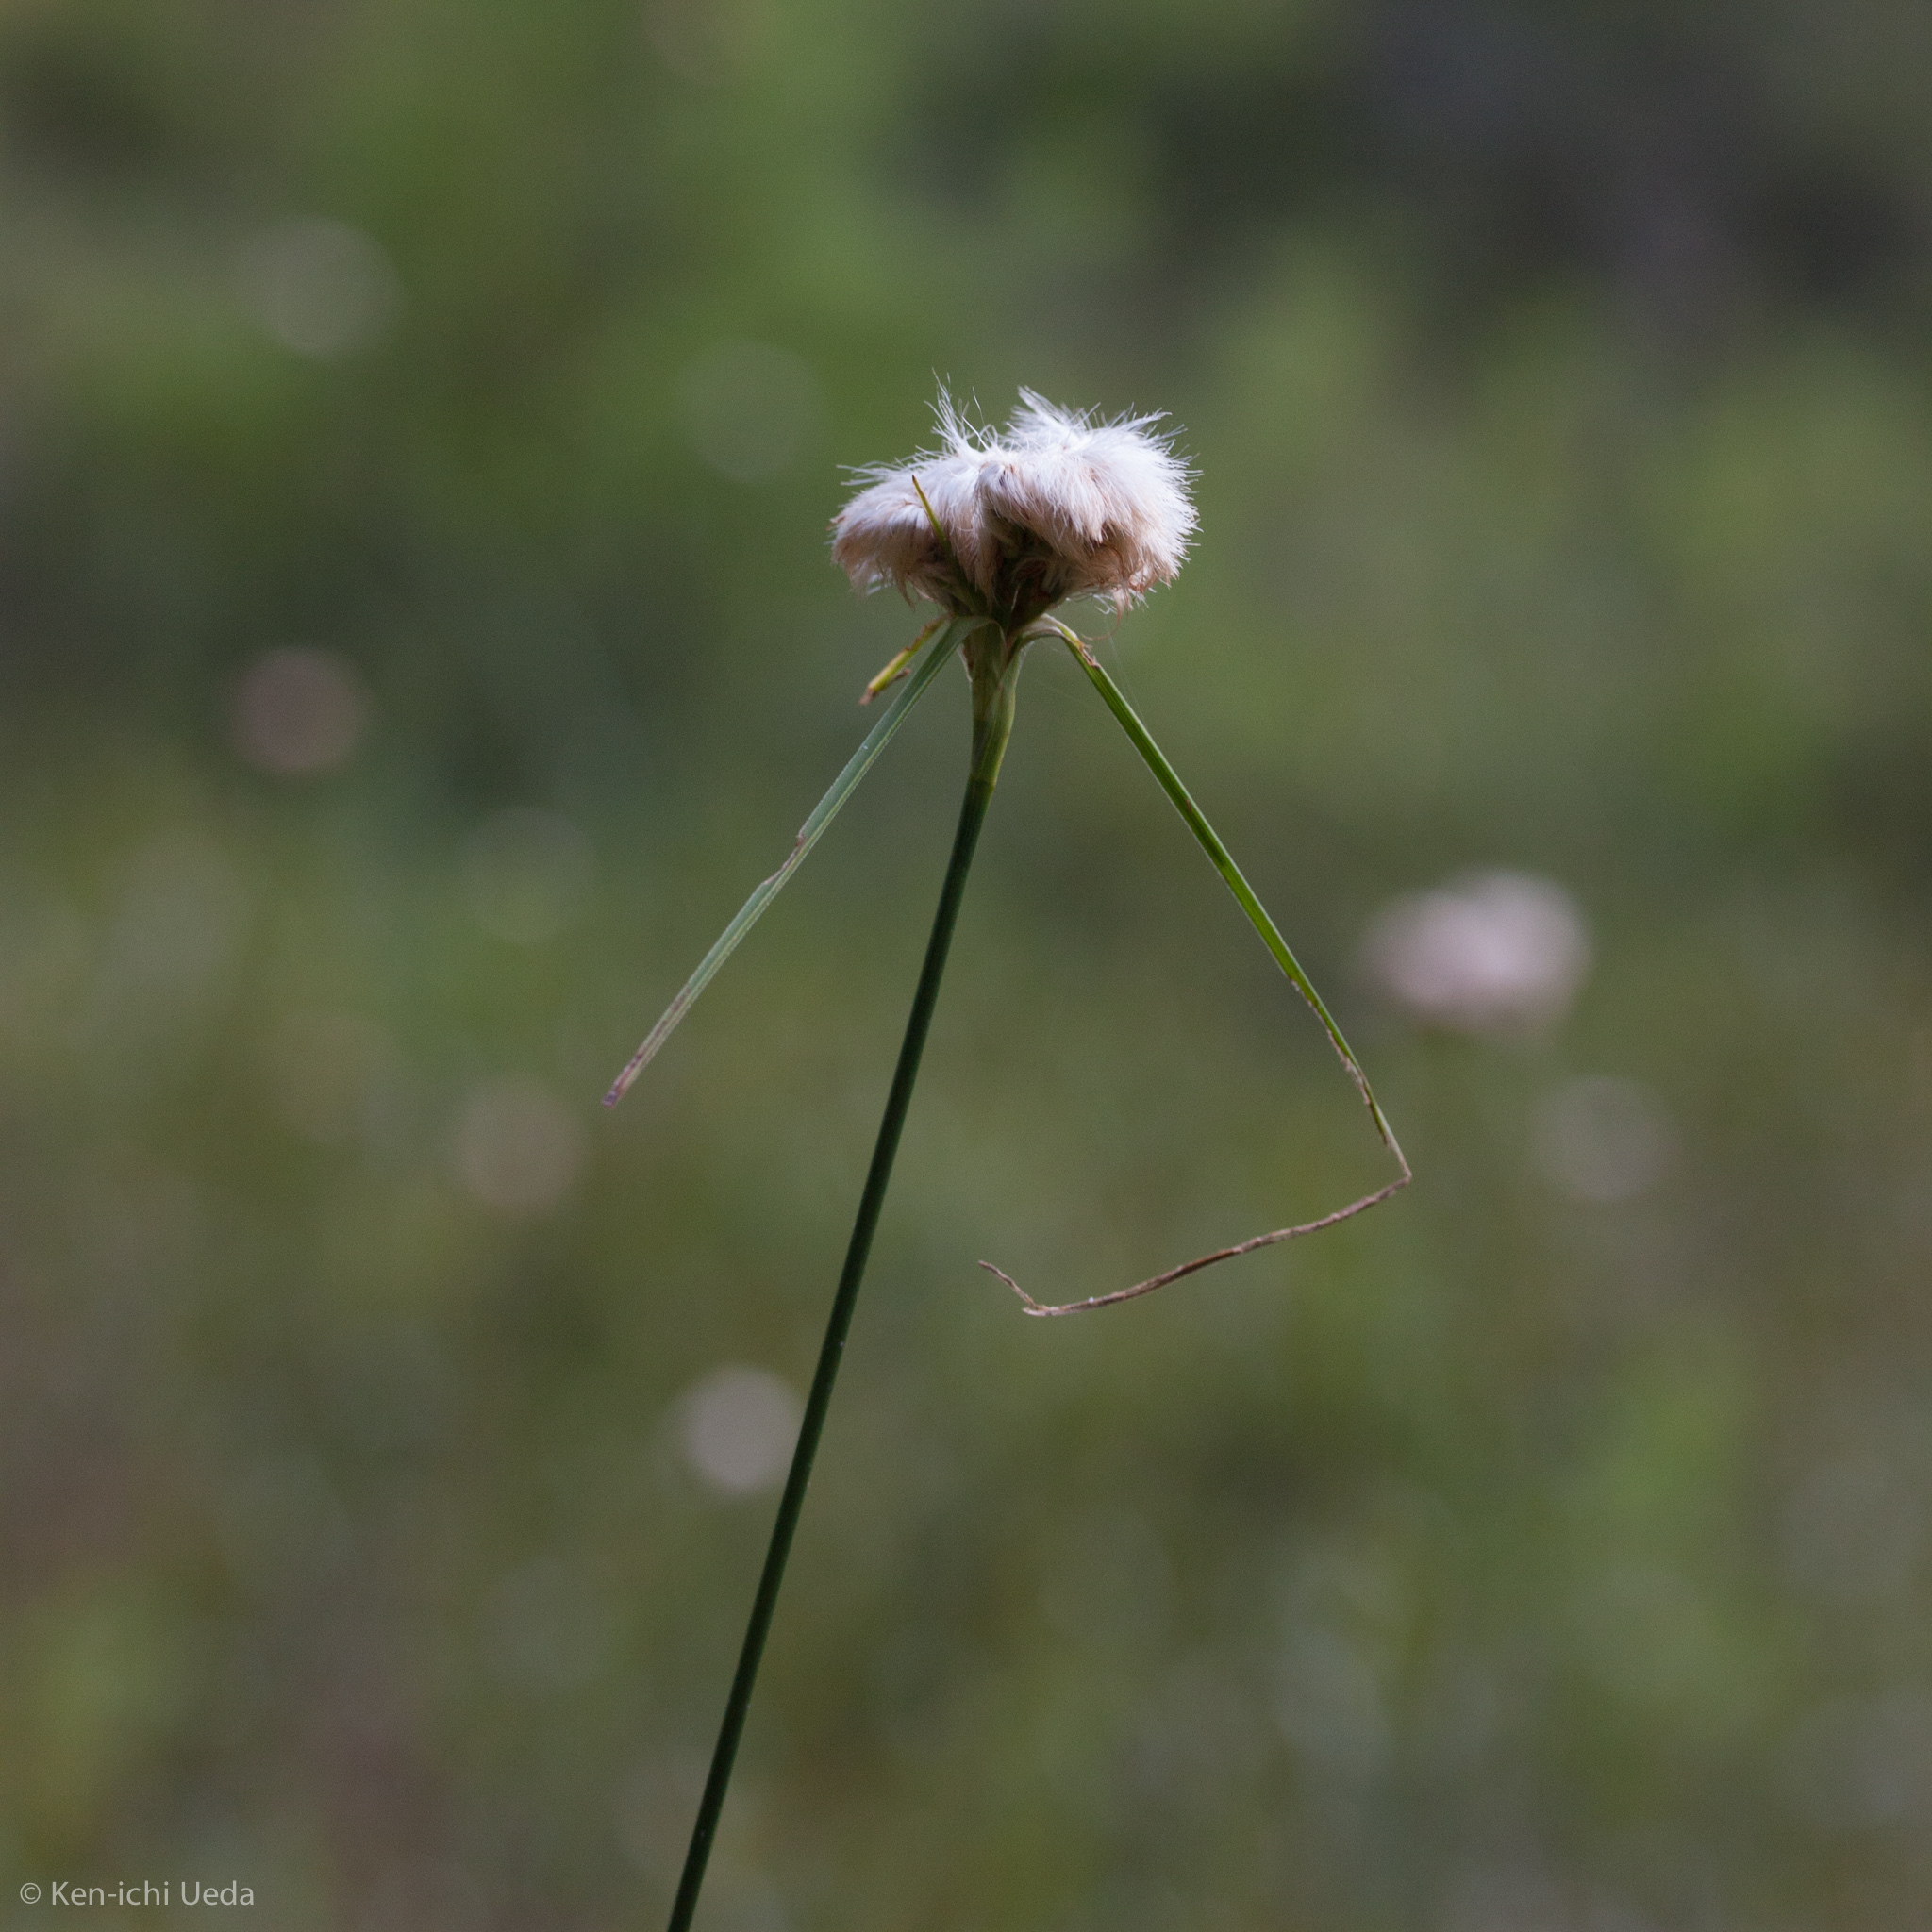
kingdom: Plantae
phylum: Tracheophyta
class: Liliopsida
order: Poales
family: Cyperaceae
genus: Eriophorum
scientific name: Eriophorum virginicum
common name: Tawny cottongrass
